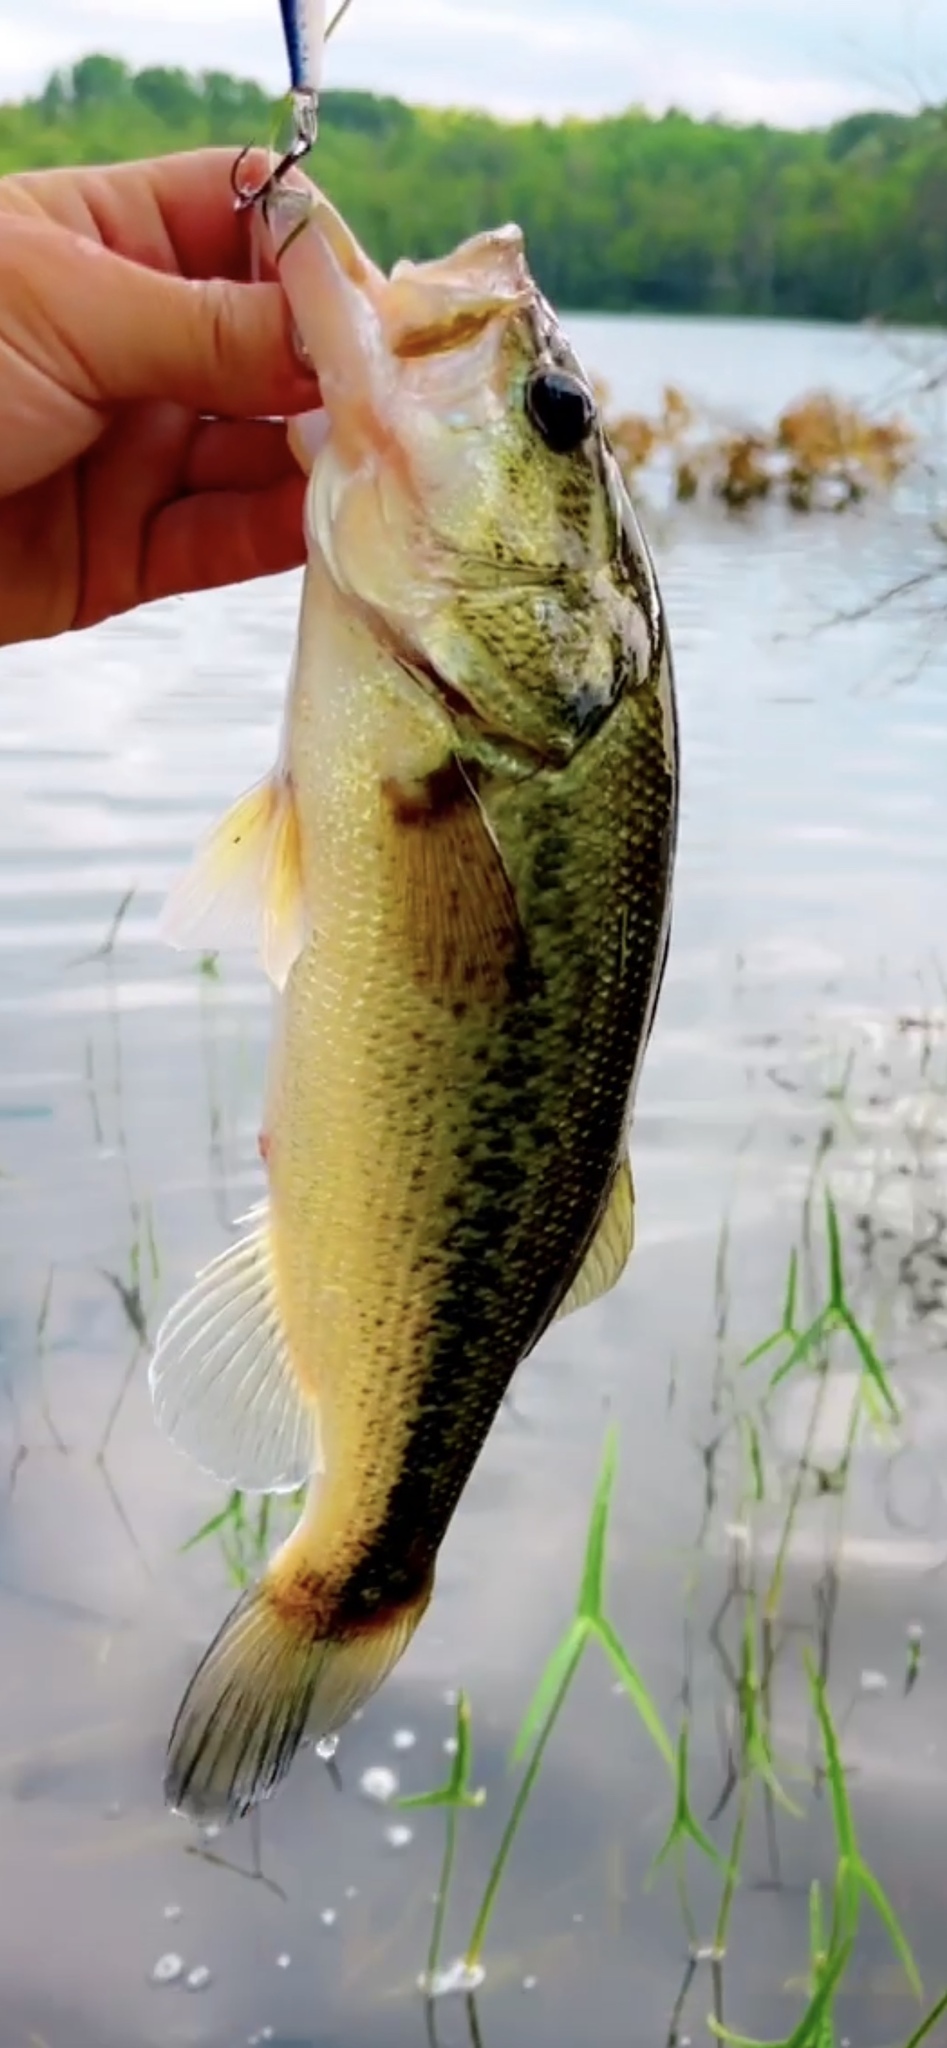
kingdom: Animalia
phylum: Chordata
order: Perciformes
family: Centrarchidae
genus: Micropterus
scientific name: Micropterus
